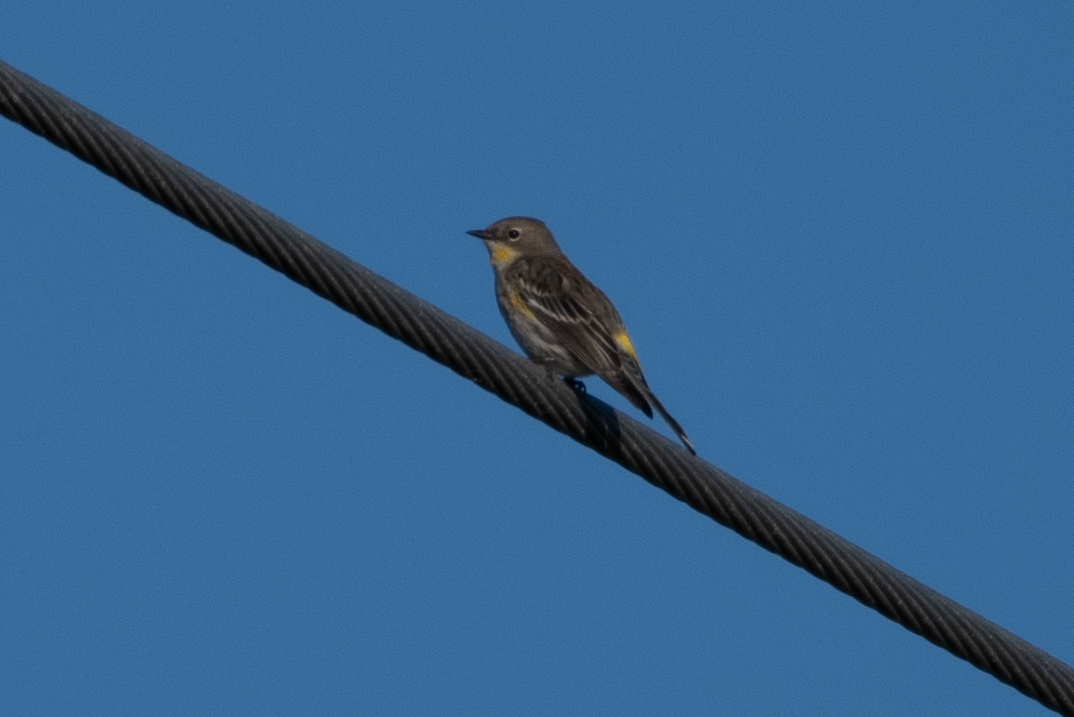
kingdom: Animalia
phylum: Chordata
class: Aves
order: Passeriformes
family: Parulidae
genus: Setophaga
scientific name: Setophaga coronata
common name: Myrtle warbler
